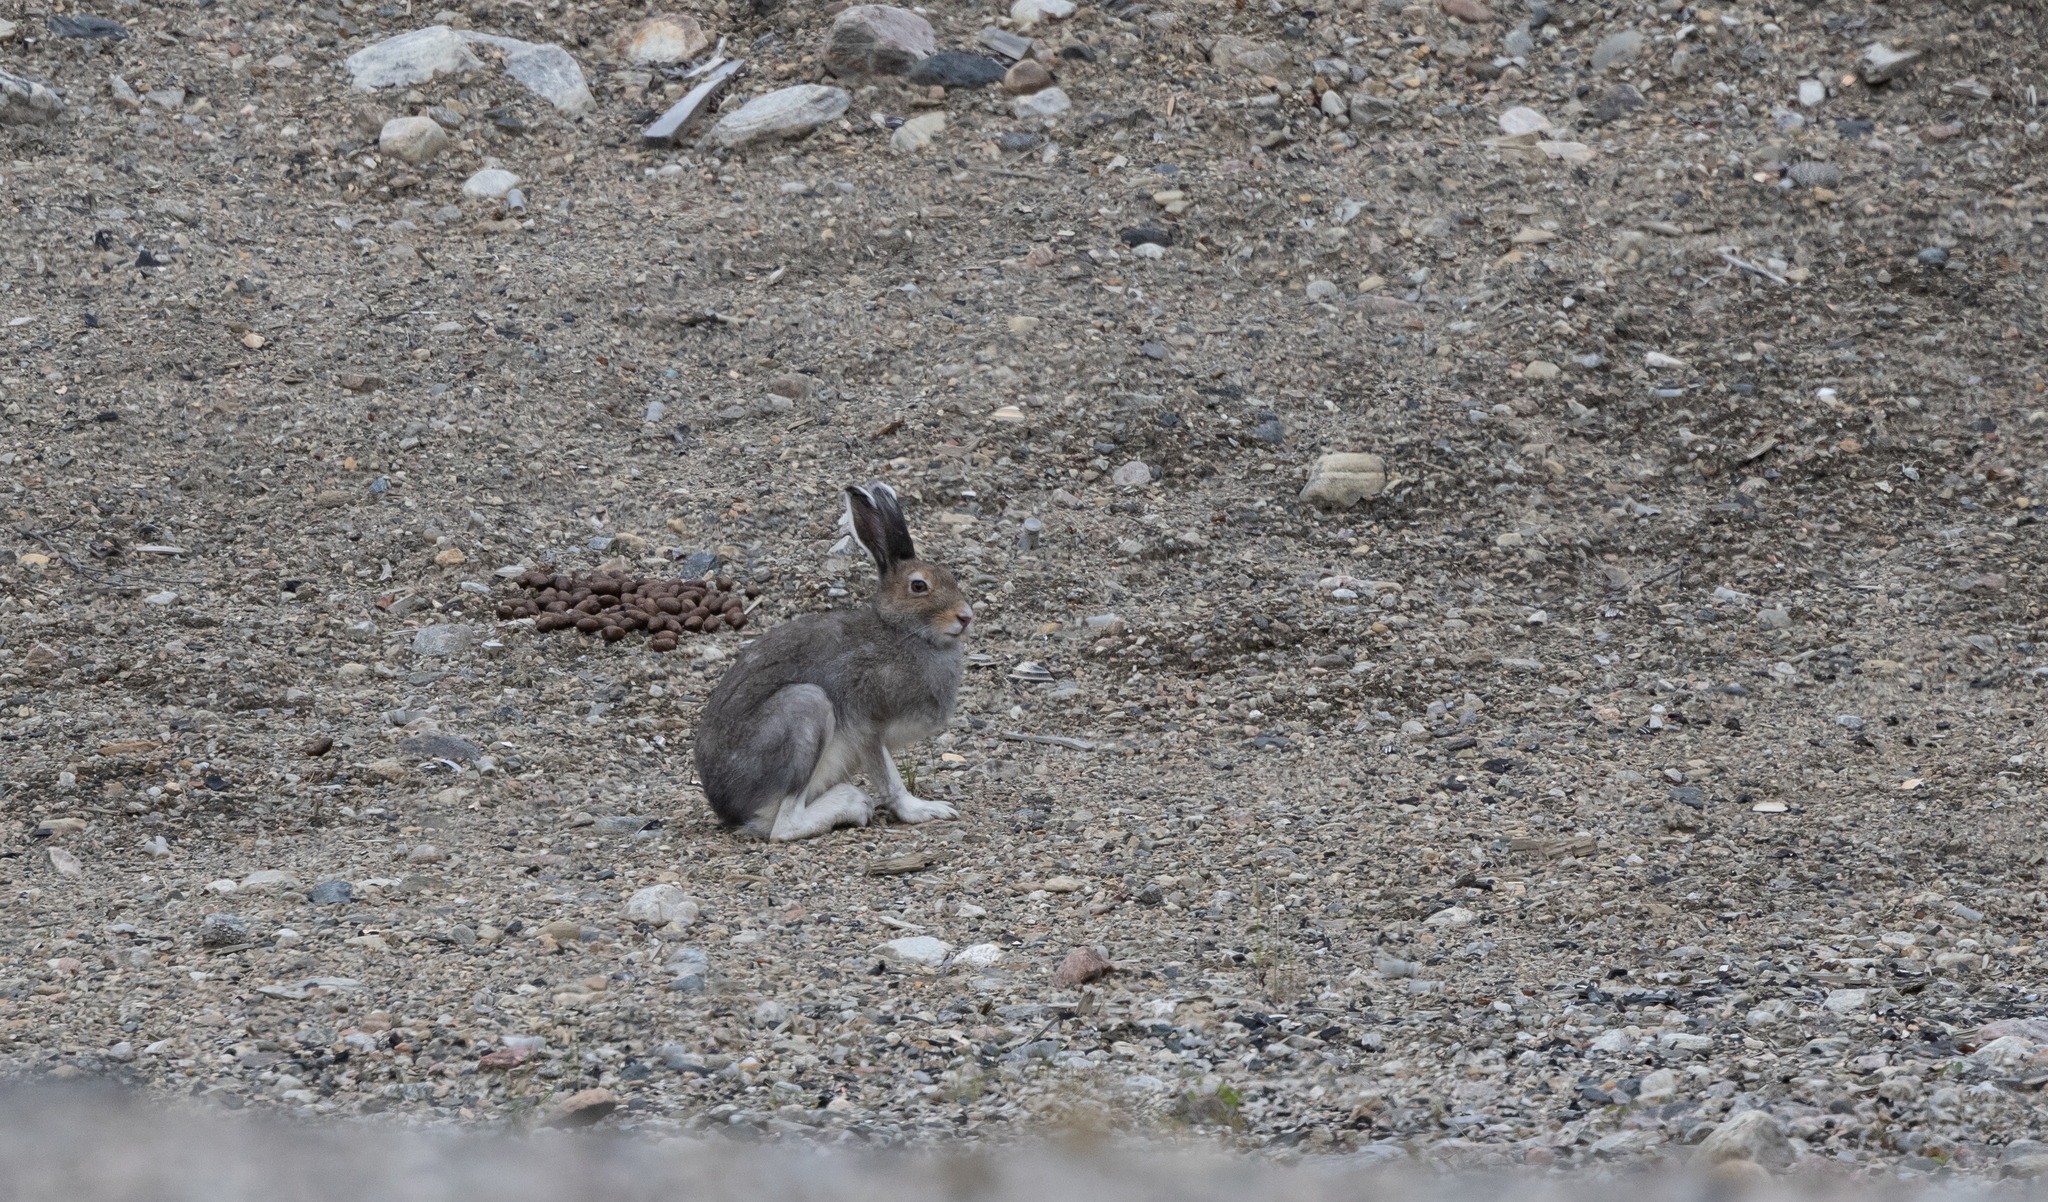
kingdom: Animalia
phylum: Chordata
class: Mammalia
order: Lagomorpha
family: Leporidae
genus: Lepus
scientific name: Lepus timidus
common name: Mountain hare
